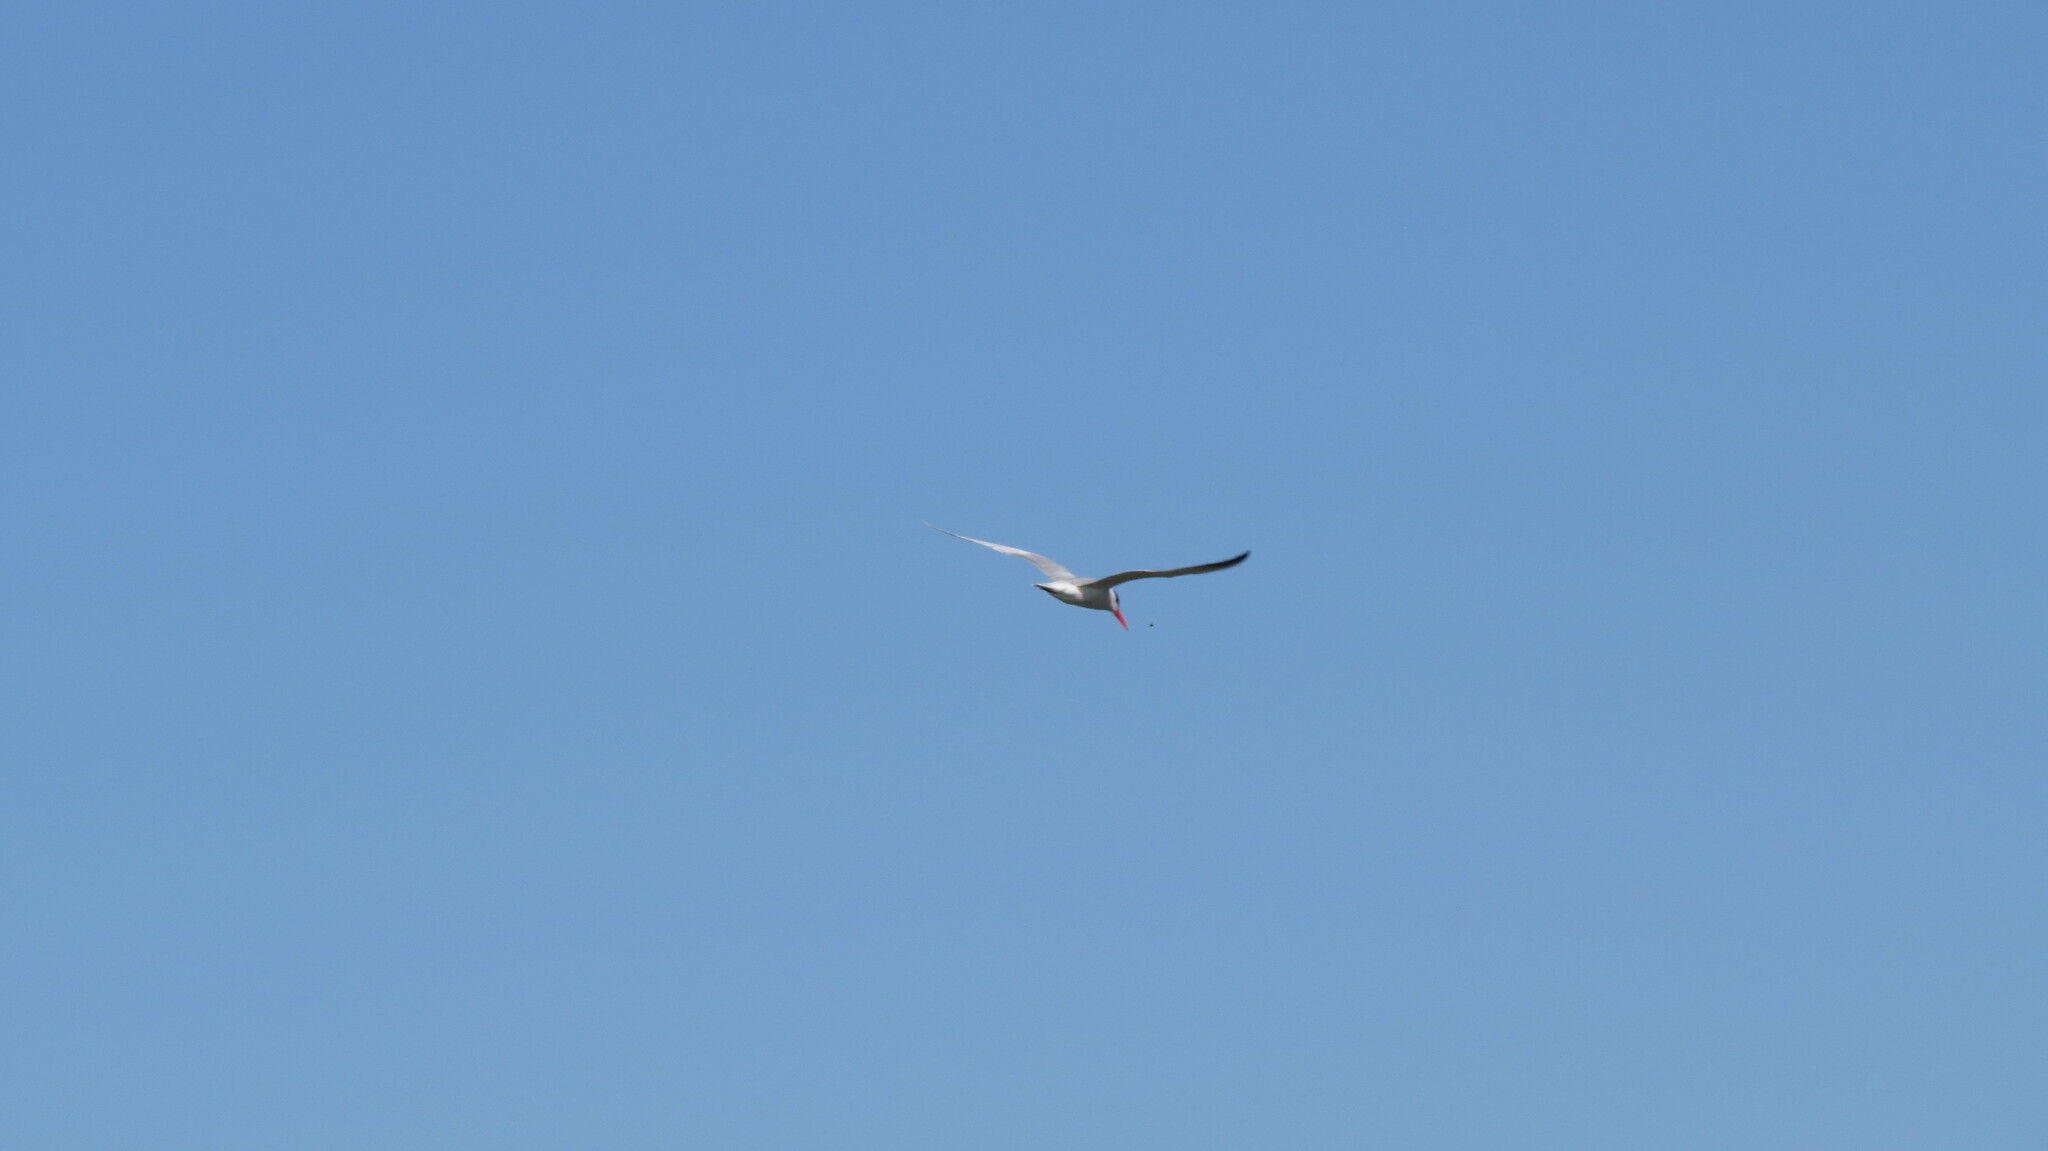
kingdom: Animalia
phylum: Chordata
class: Aves
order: Charadriiformes
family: Laridae
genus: Hydroprogne
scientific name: Hydroprogne caspia
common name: Caspian tern
